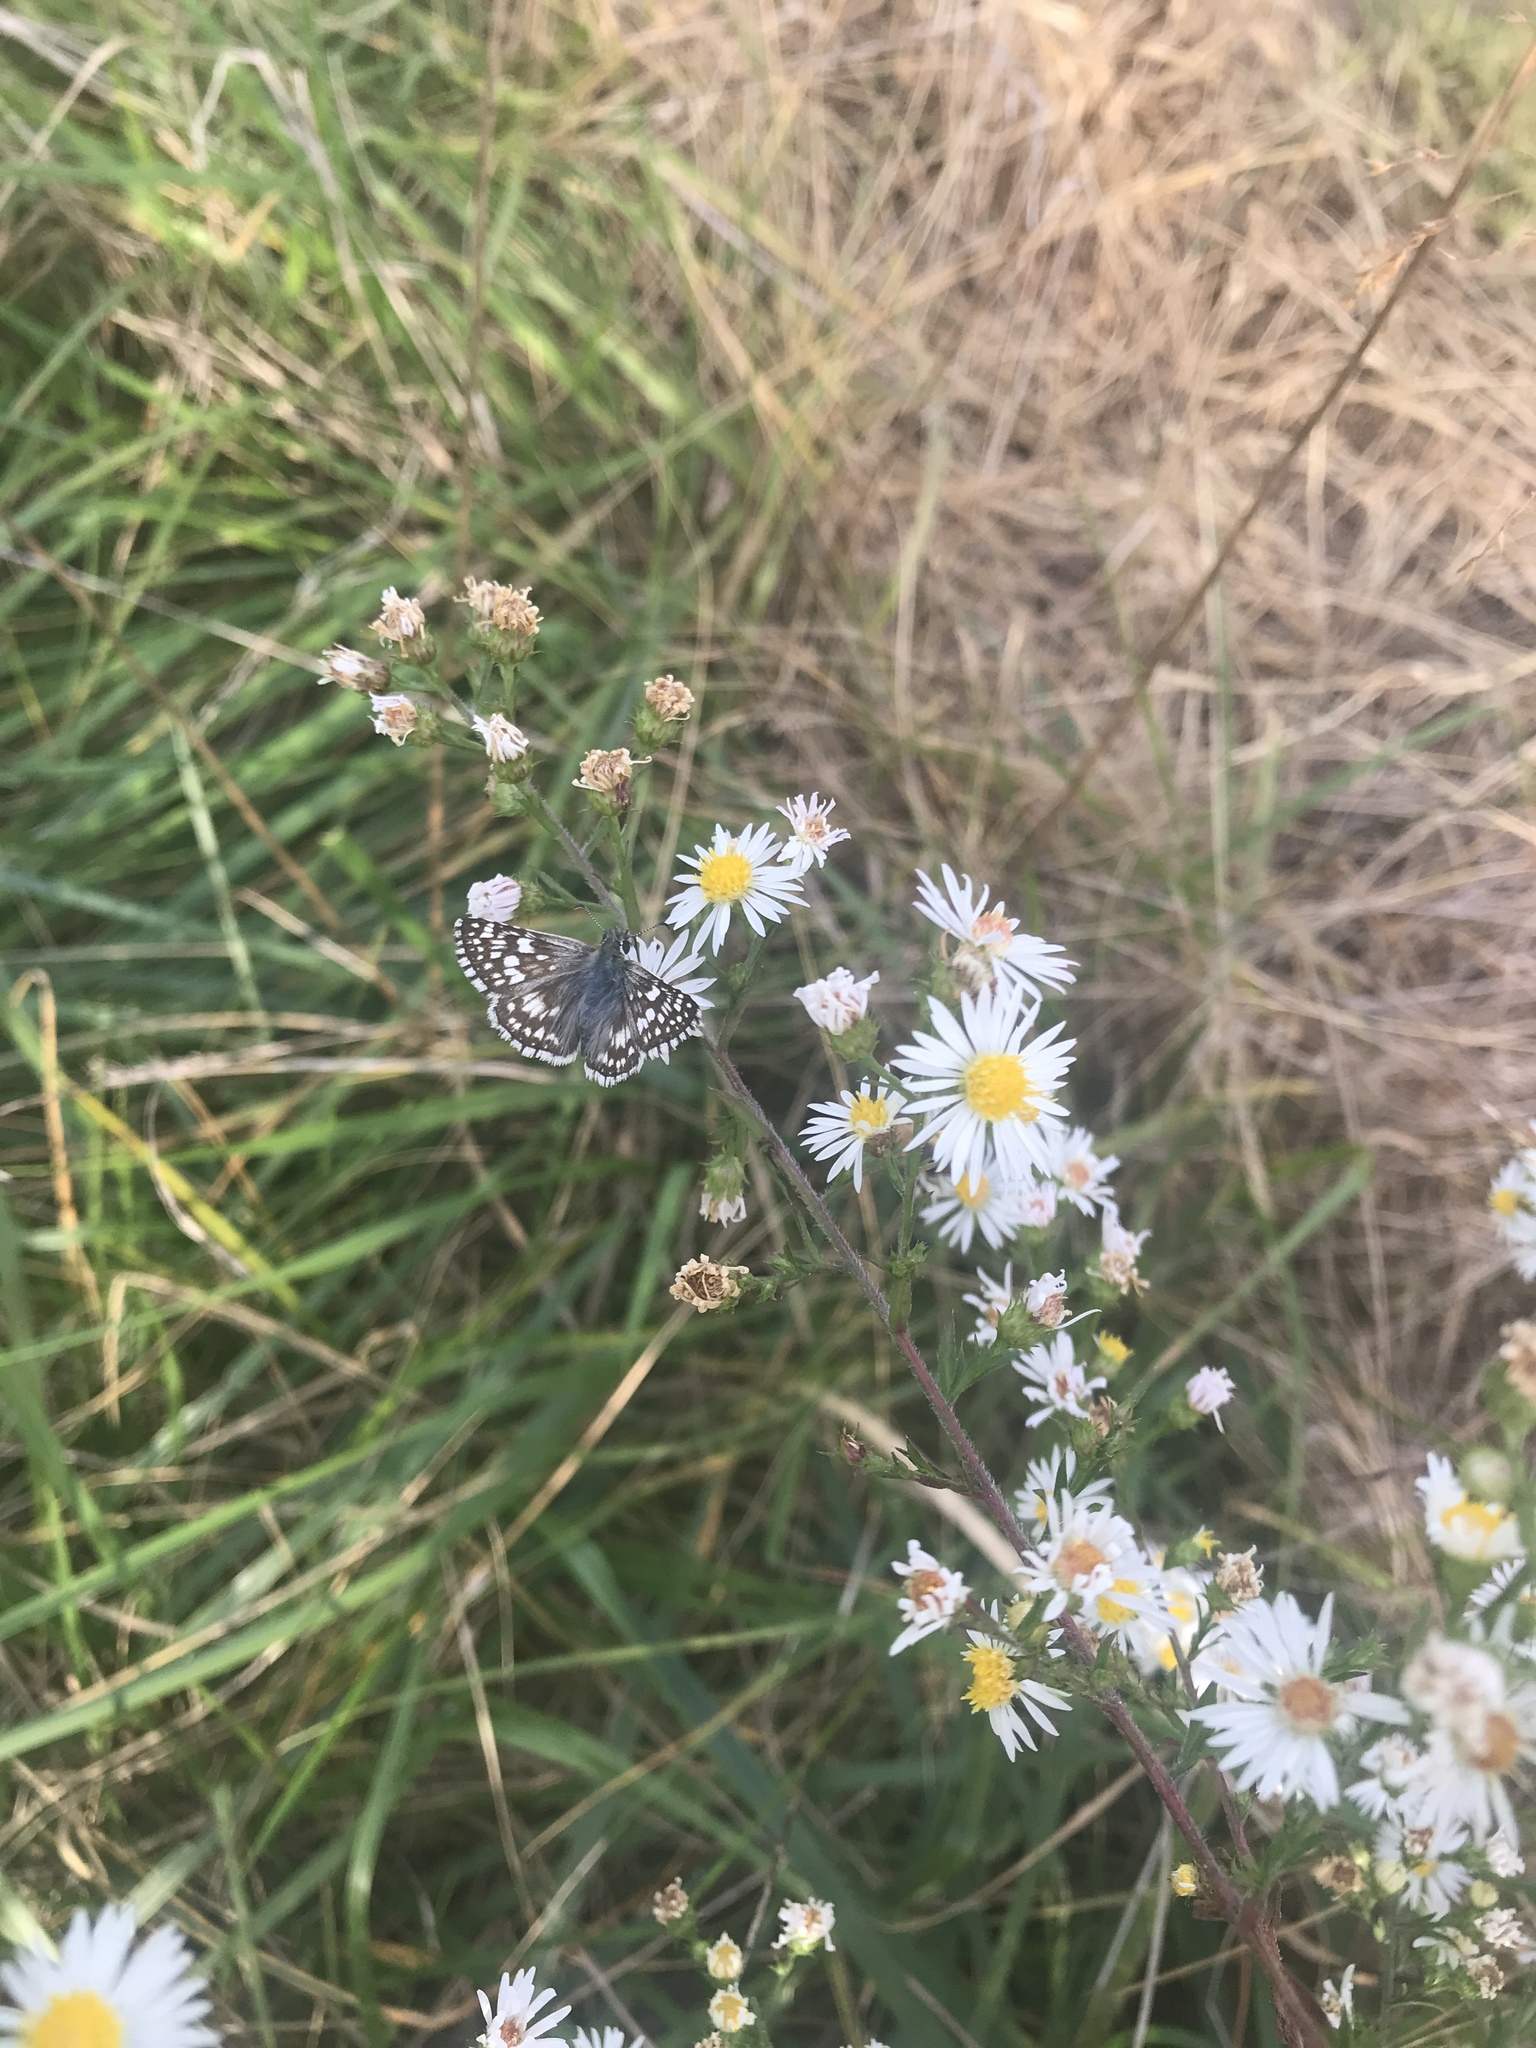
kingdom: Animalia
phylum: Arthropoda
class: Insecta
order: Lepidoptera
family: Hesperiidae
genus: Burnsius
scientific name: Burnsius communis
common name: Common checkered-skipper
